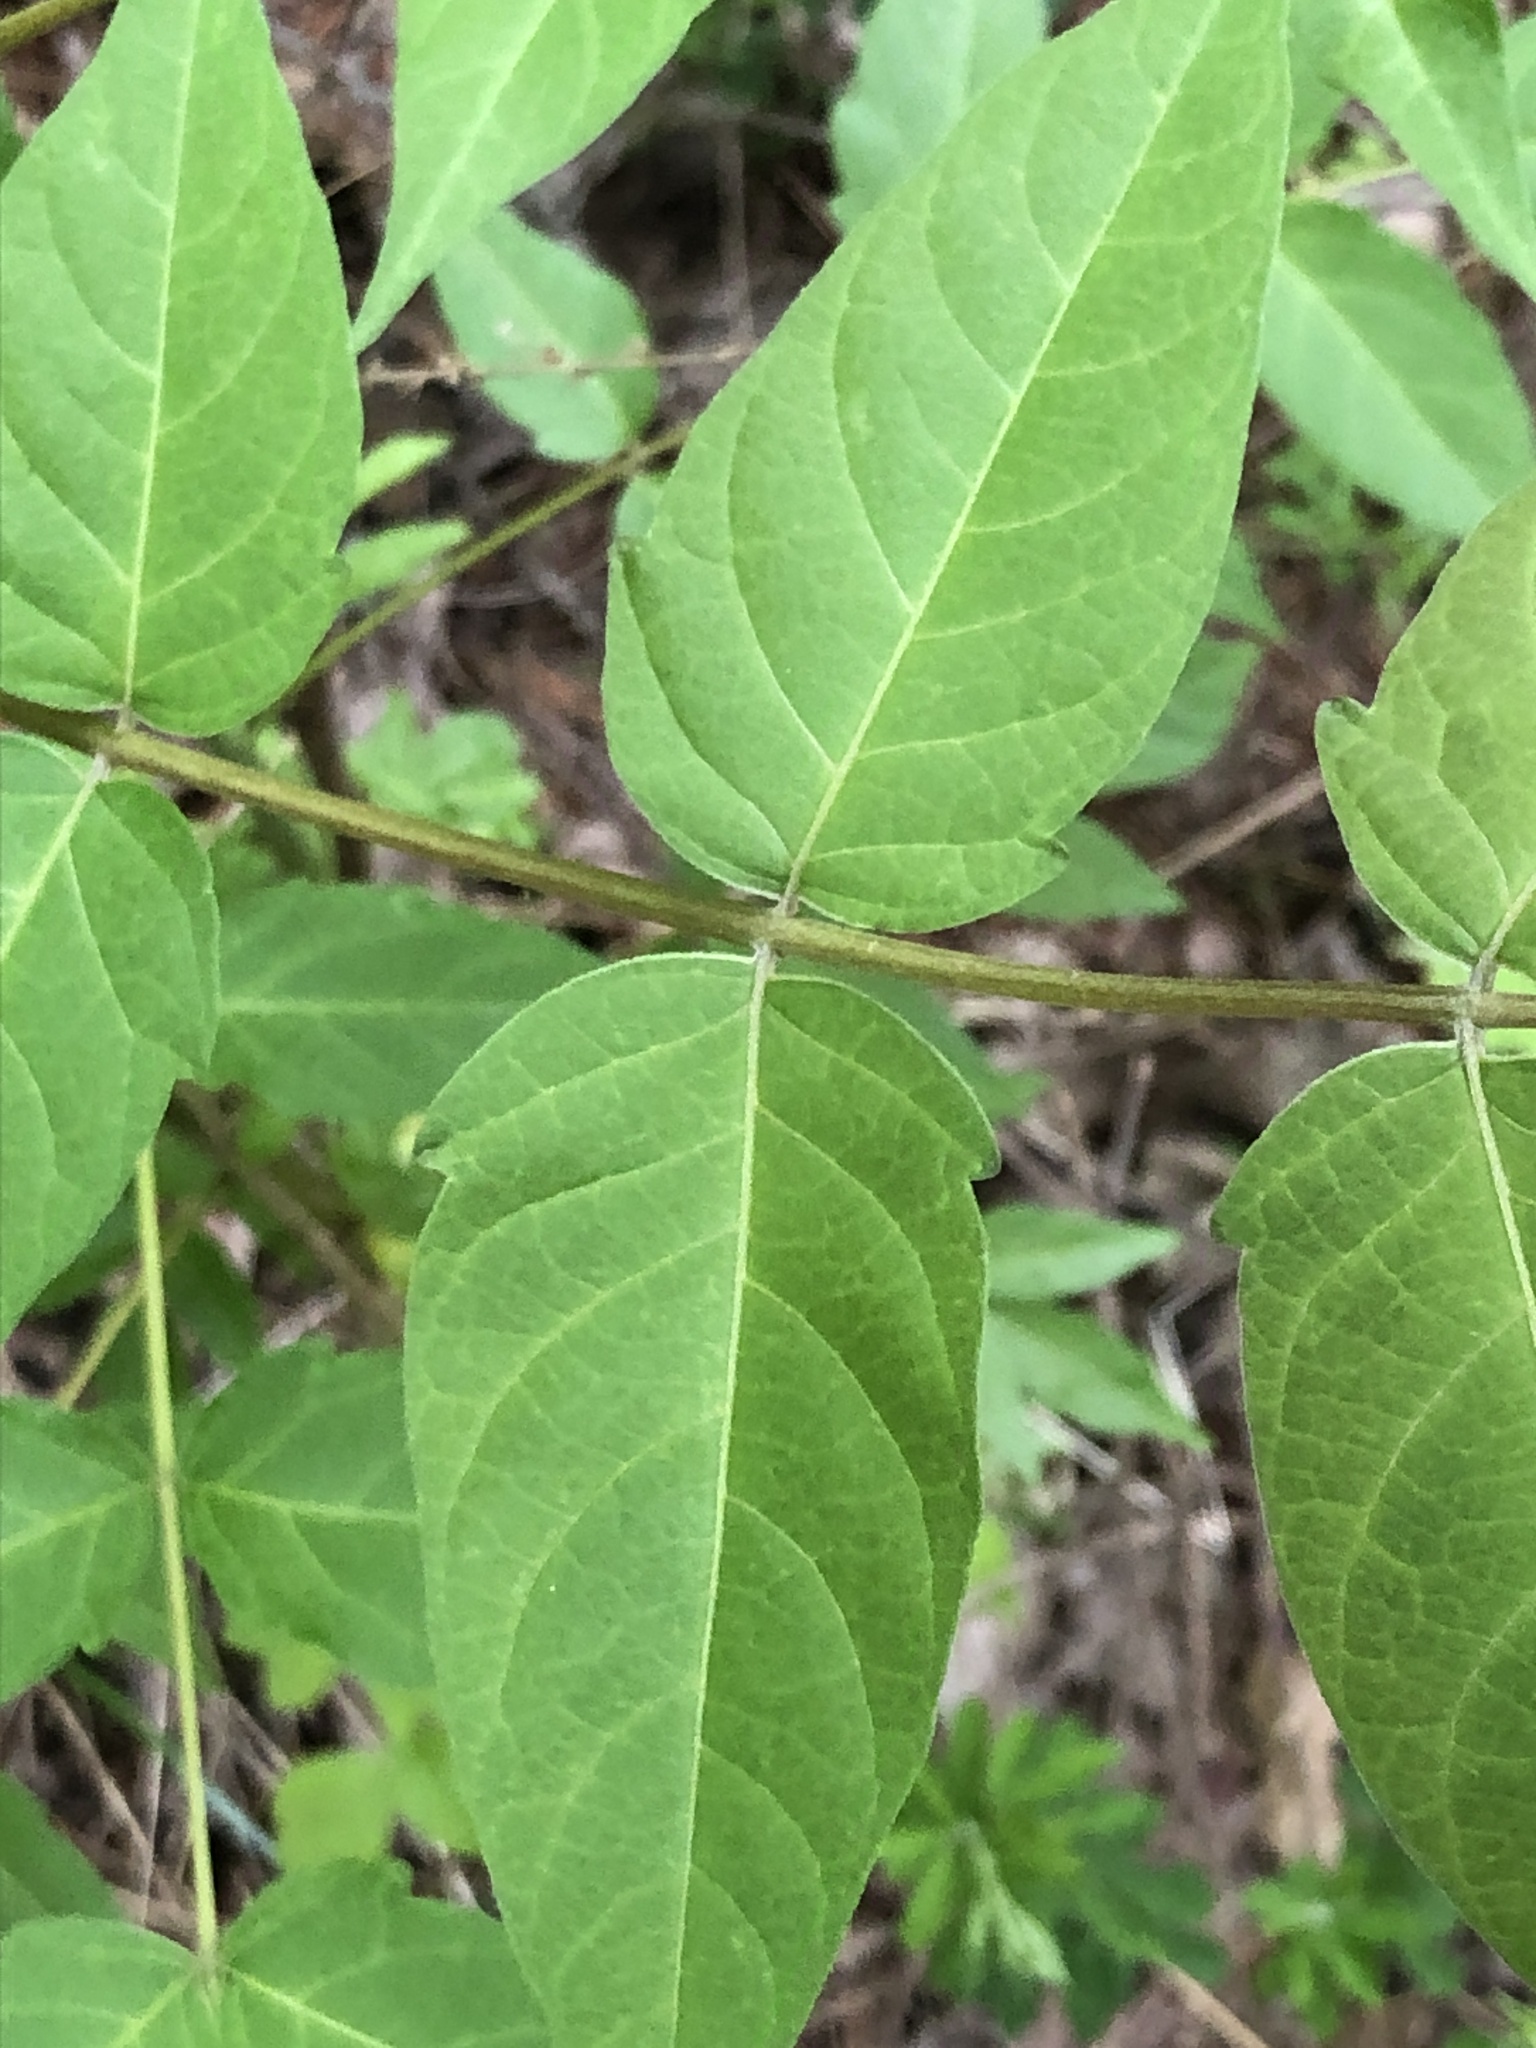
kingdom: Plantae
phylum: Tracheophyta
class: Magnoliopsida
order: Sapindales
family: Simaroubaceae
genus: Ailanthus
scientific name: Ailanthus altissima
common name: Tree-of-heaven
